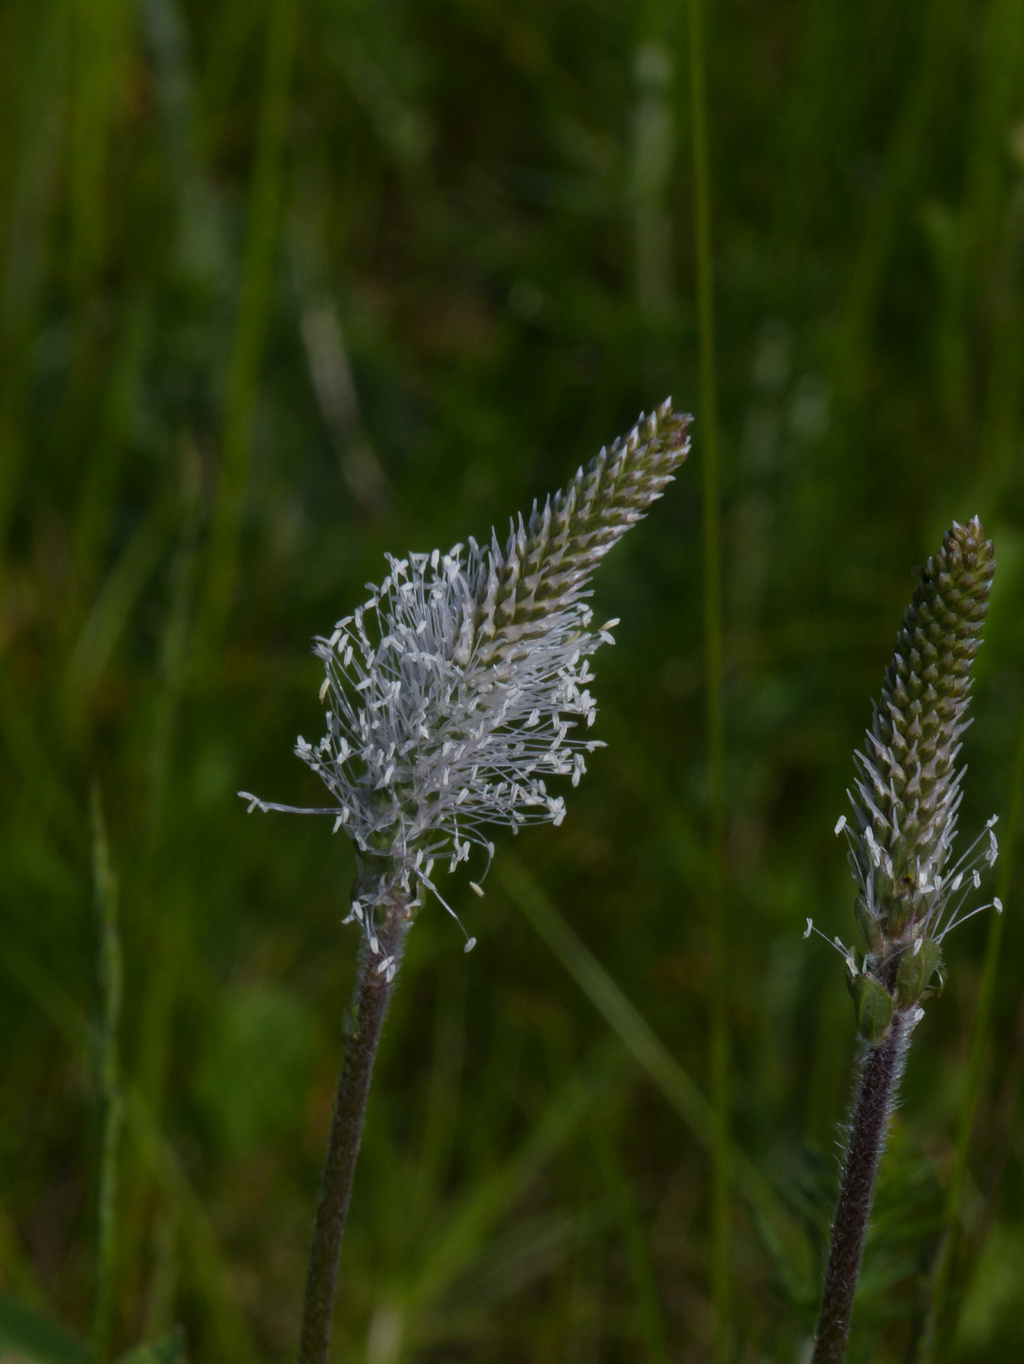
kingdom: Plantae
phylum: Tracheophyta
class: Magnoliopsida
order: Lamiales
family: Plantaginaceae
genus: Plantago
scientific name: Plantago media
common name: Hoary plantain
